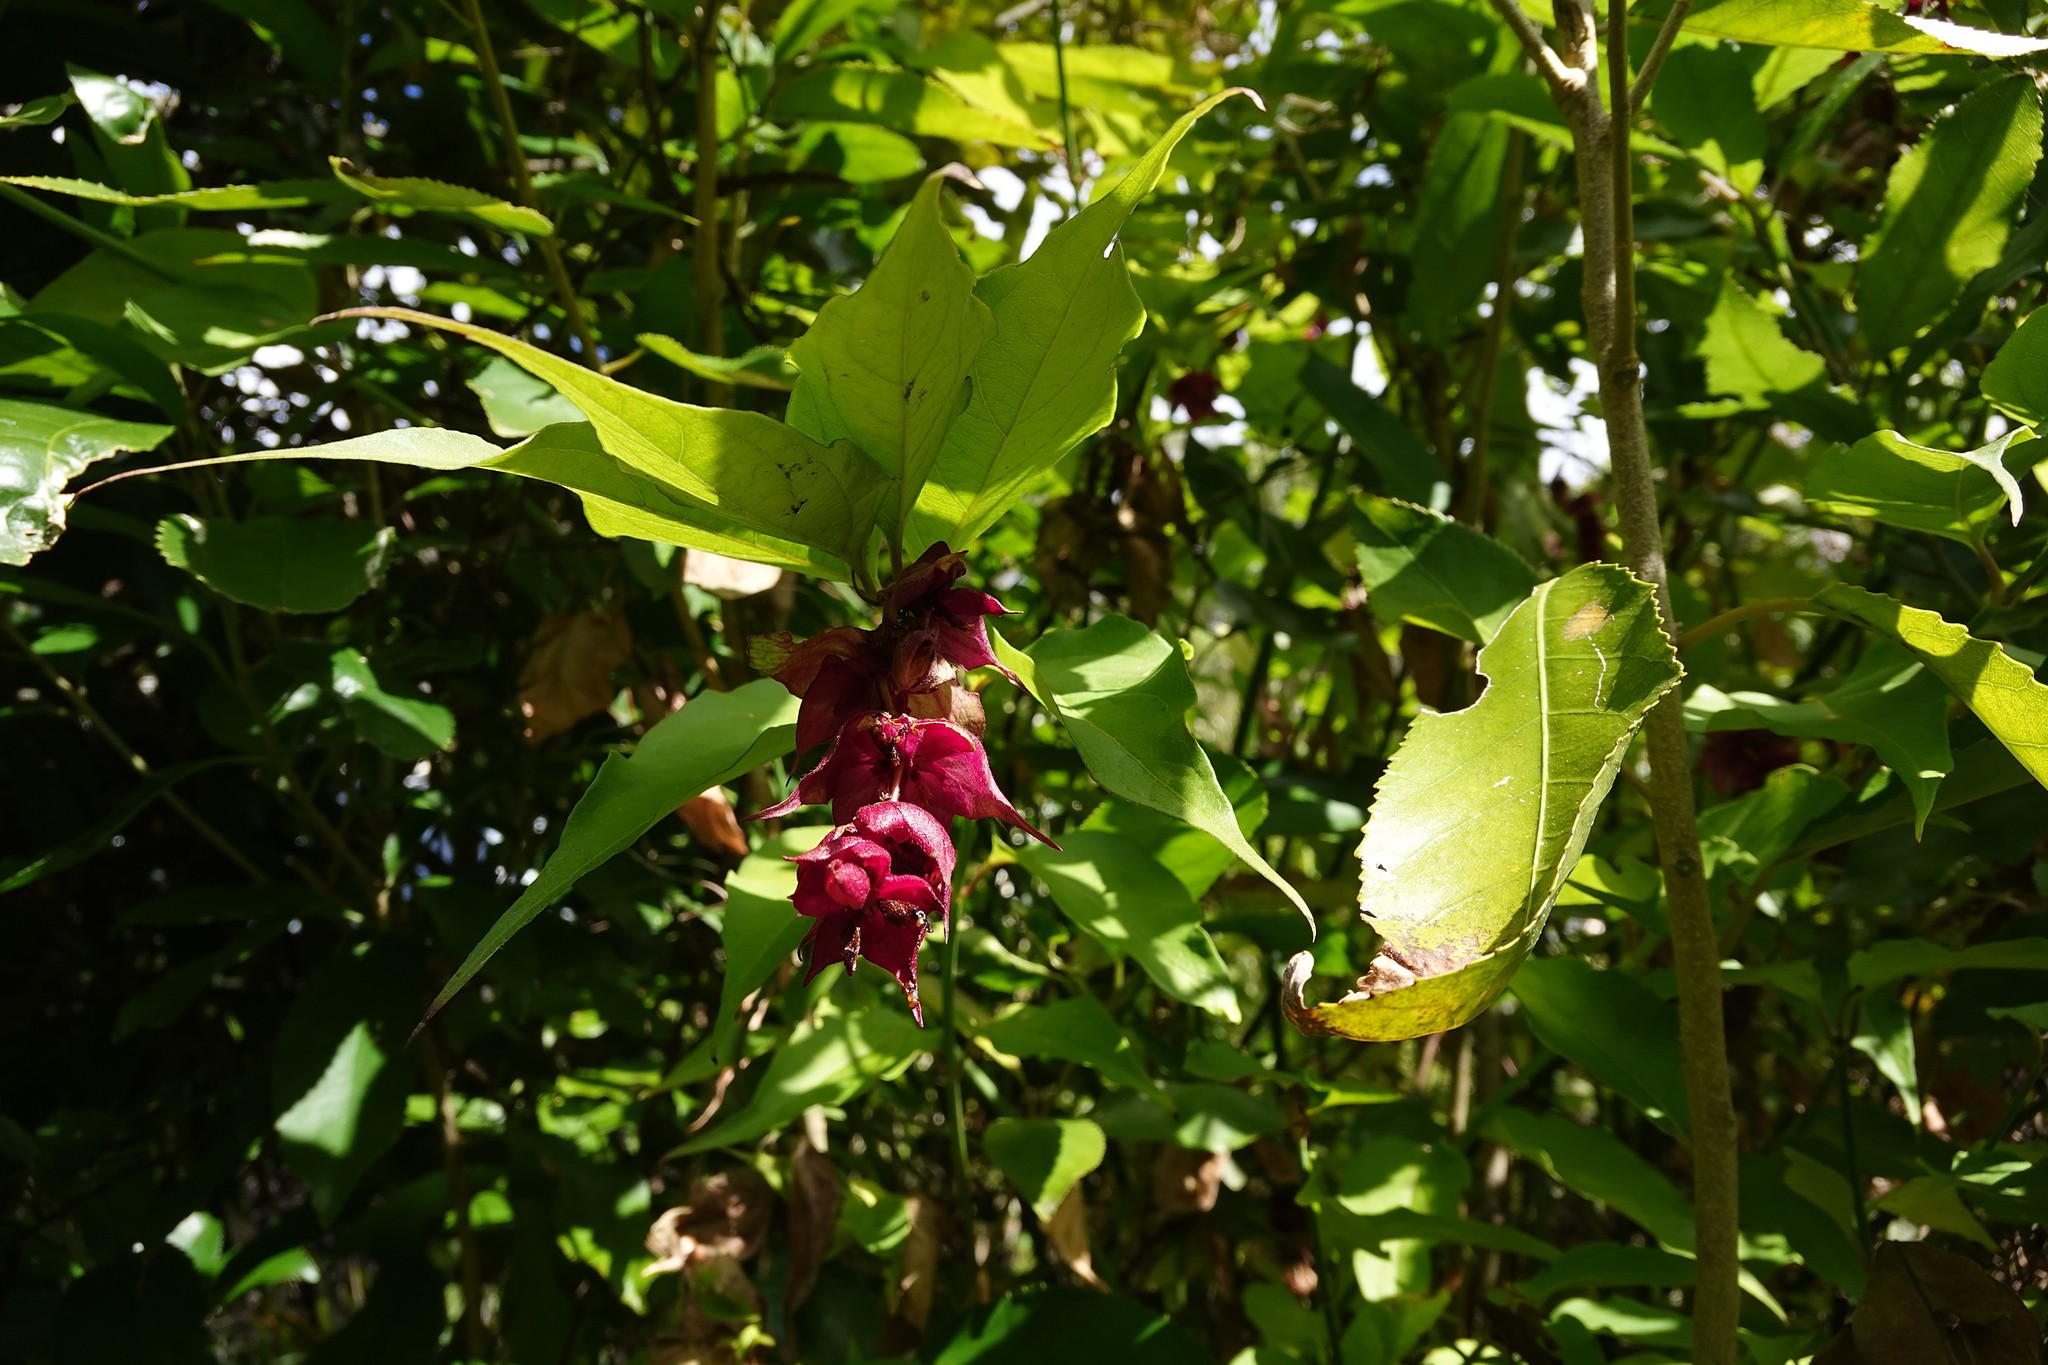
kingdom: Plantae
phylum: Tracheophyta
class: Magnoliopsida
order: Dipsacales
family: Caprifoliaceae
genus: Leycesteria
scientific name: Leycesteria formosa
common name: Himalayan honeysuckle
